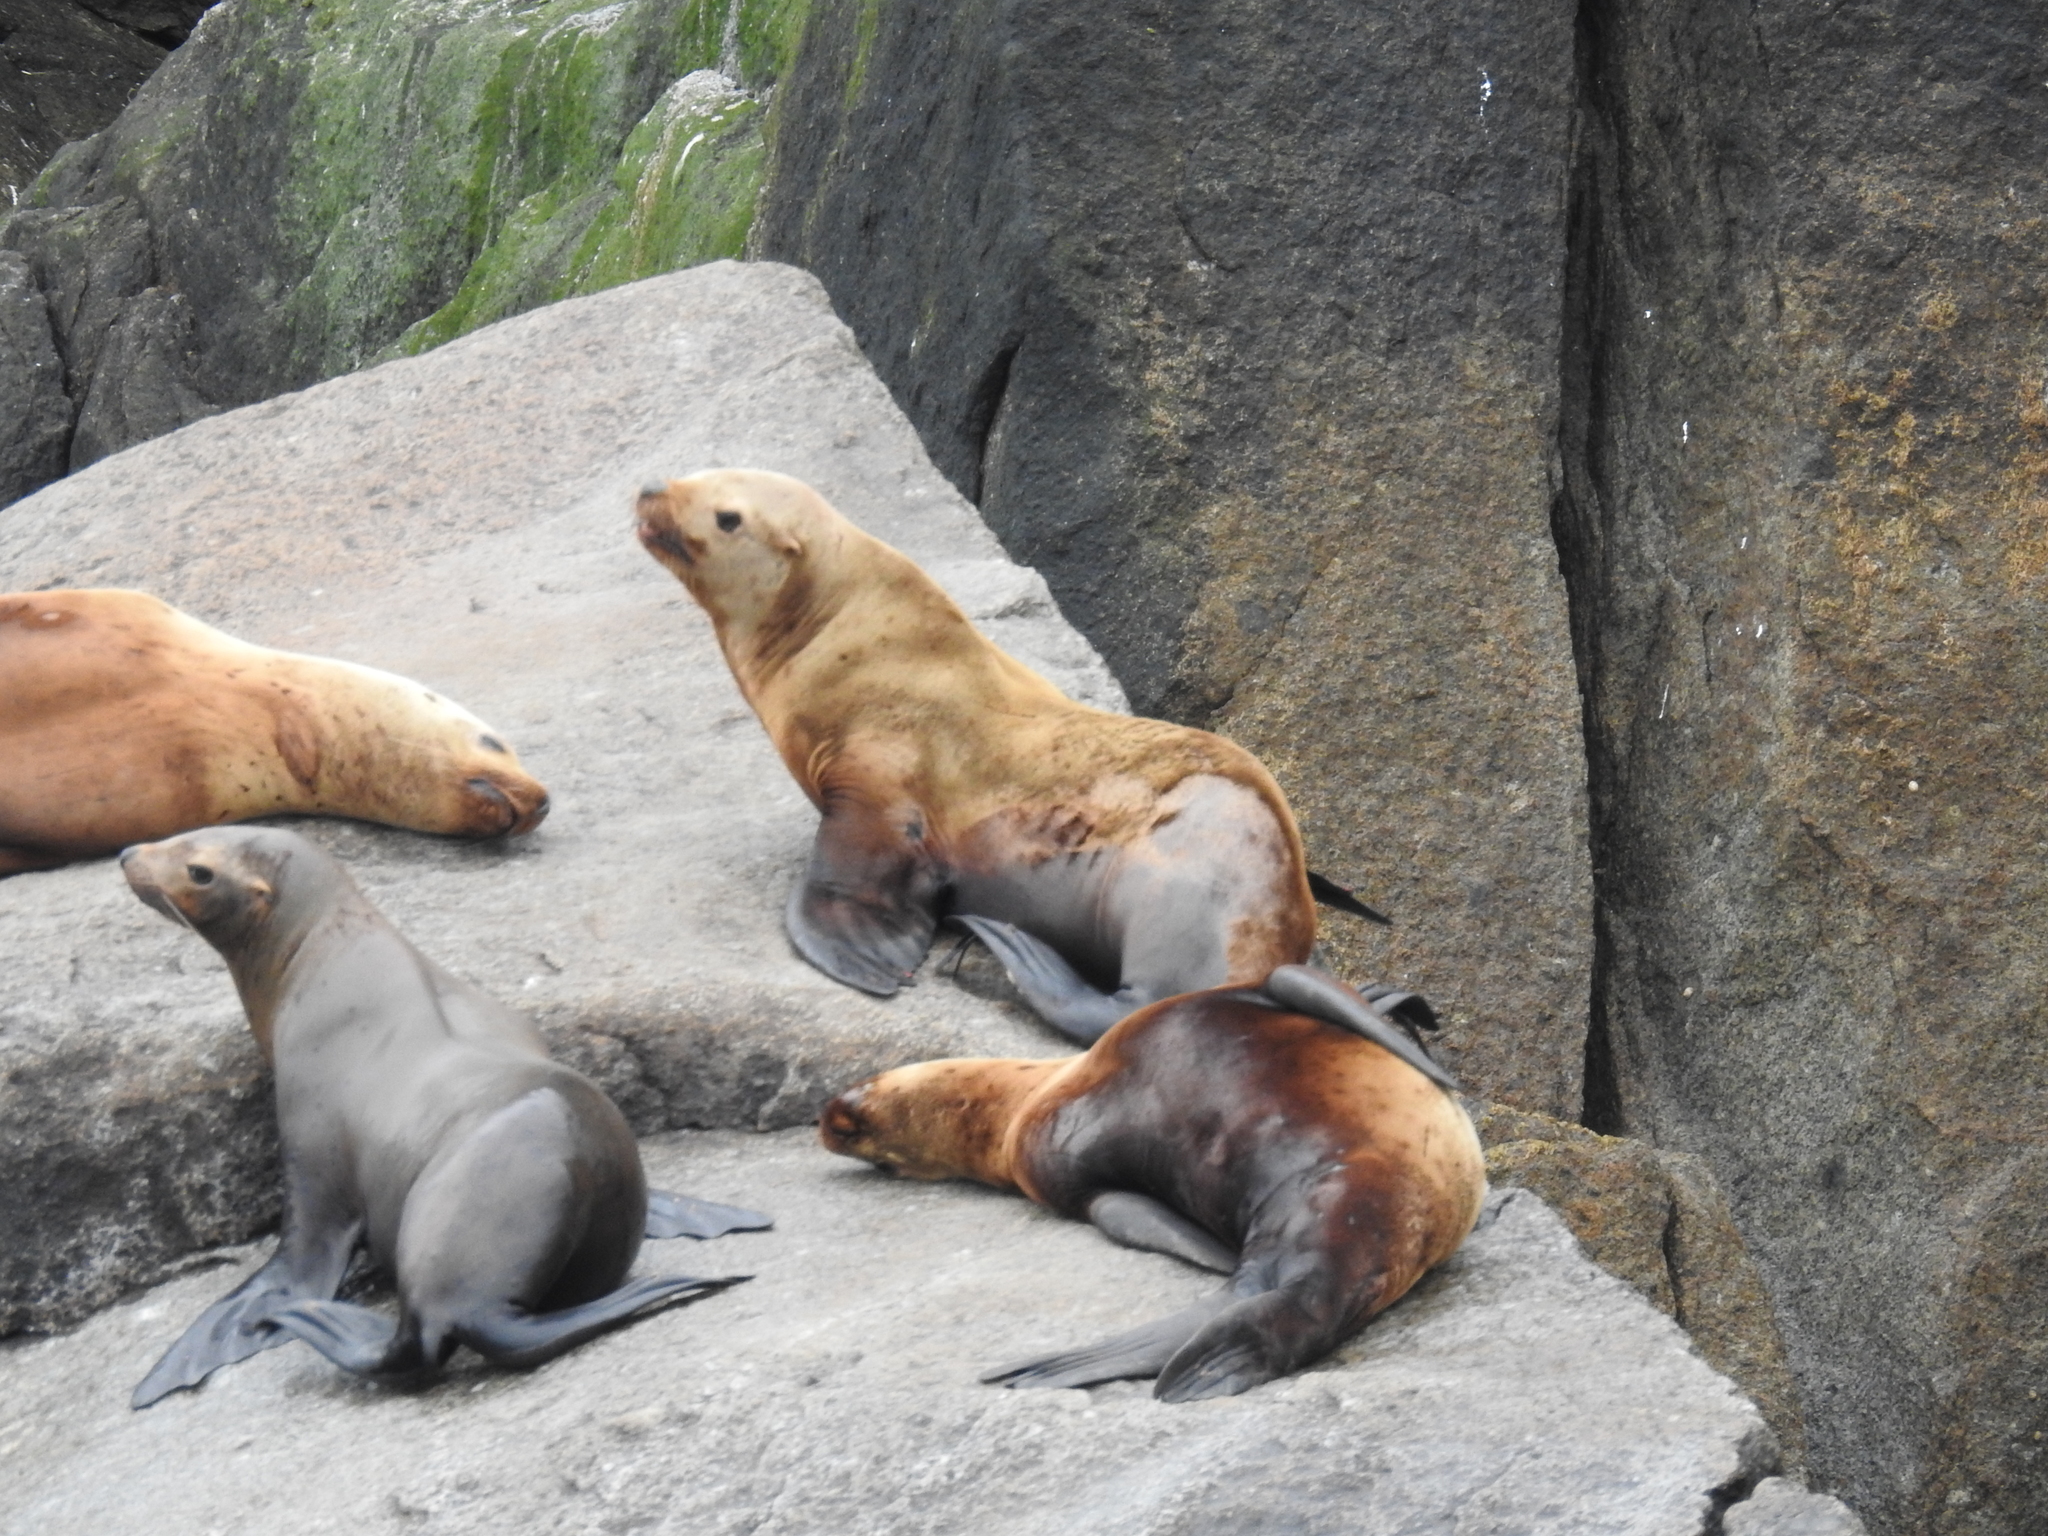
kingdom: Animalia
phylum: Chordata
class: Mammalia
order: Carnivora
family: Otariidae
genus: Eumetopias
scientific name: Eumetopias jubatus
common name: Steller sea lion
